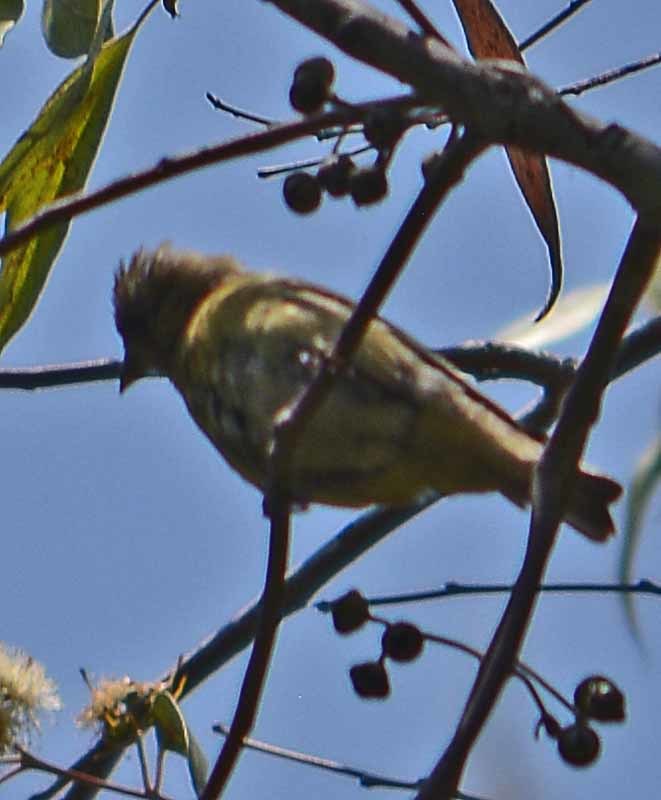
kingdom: Animalia
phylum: Chordata
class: Aves
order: Passeriformes
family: Fringillidae
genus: Spinus
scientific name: Spinus psaltria
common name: Lesser goldfinch
